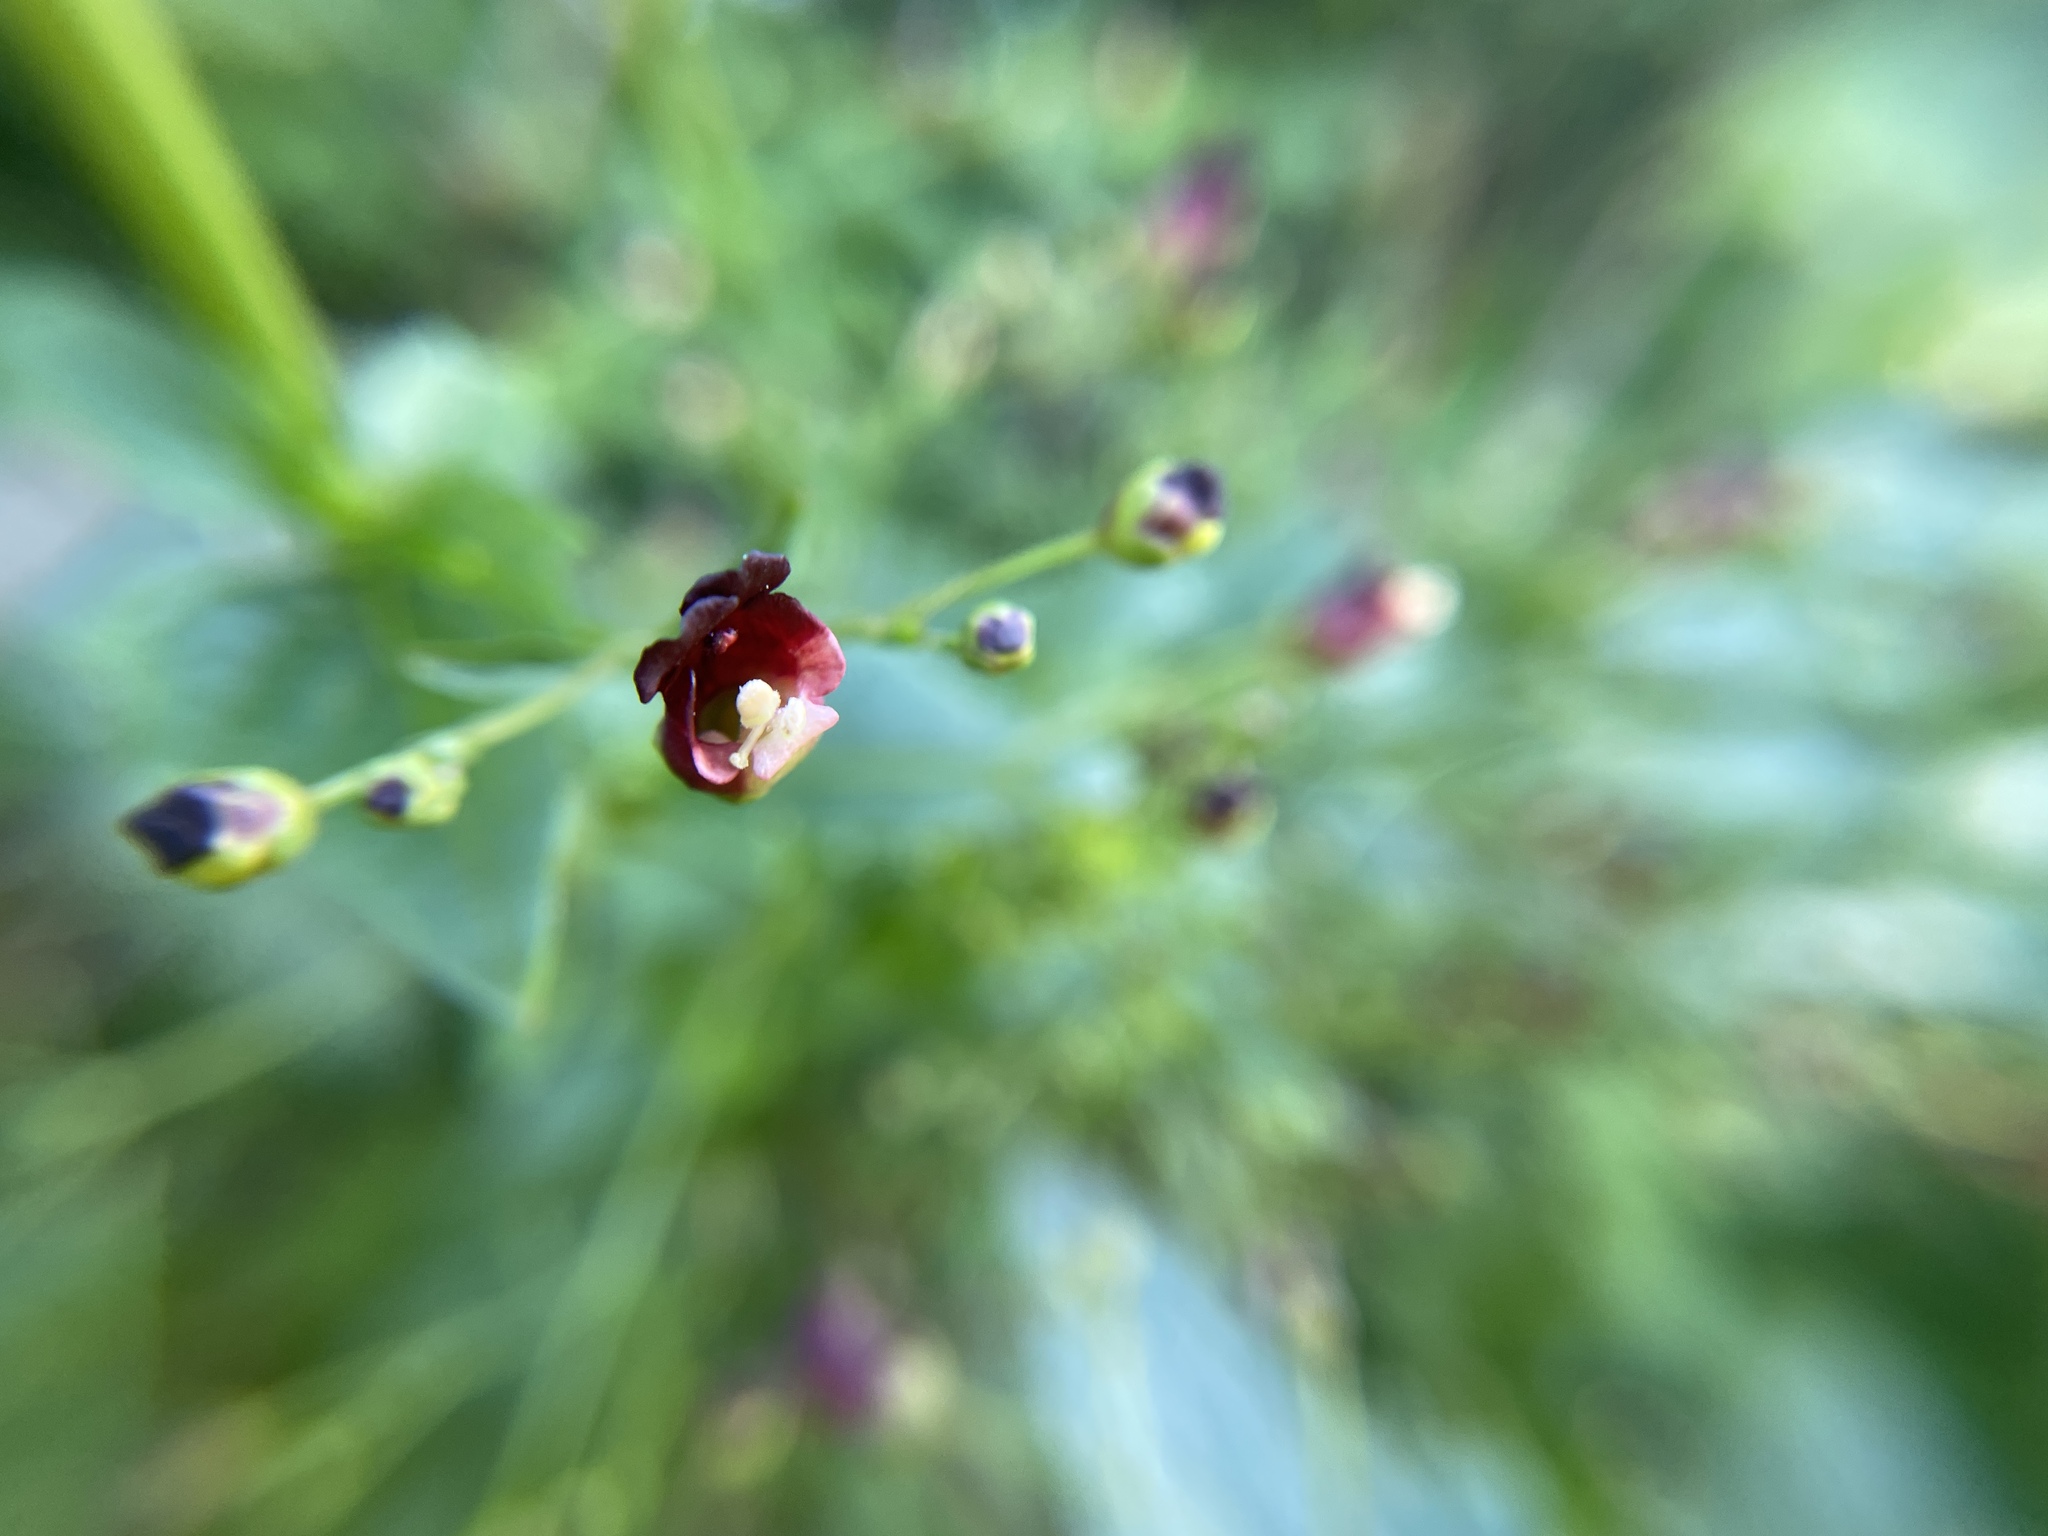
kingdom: Plantae
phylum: Tracheophyta
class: Magnoliopsida
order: Lamiales
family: Scrophulariaceae
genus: Scrophularia
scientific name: Scrophularia californica
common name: California figwort
